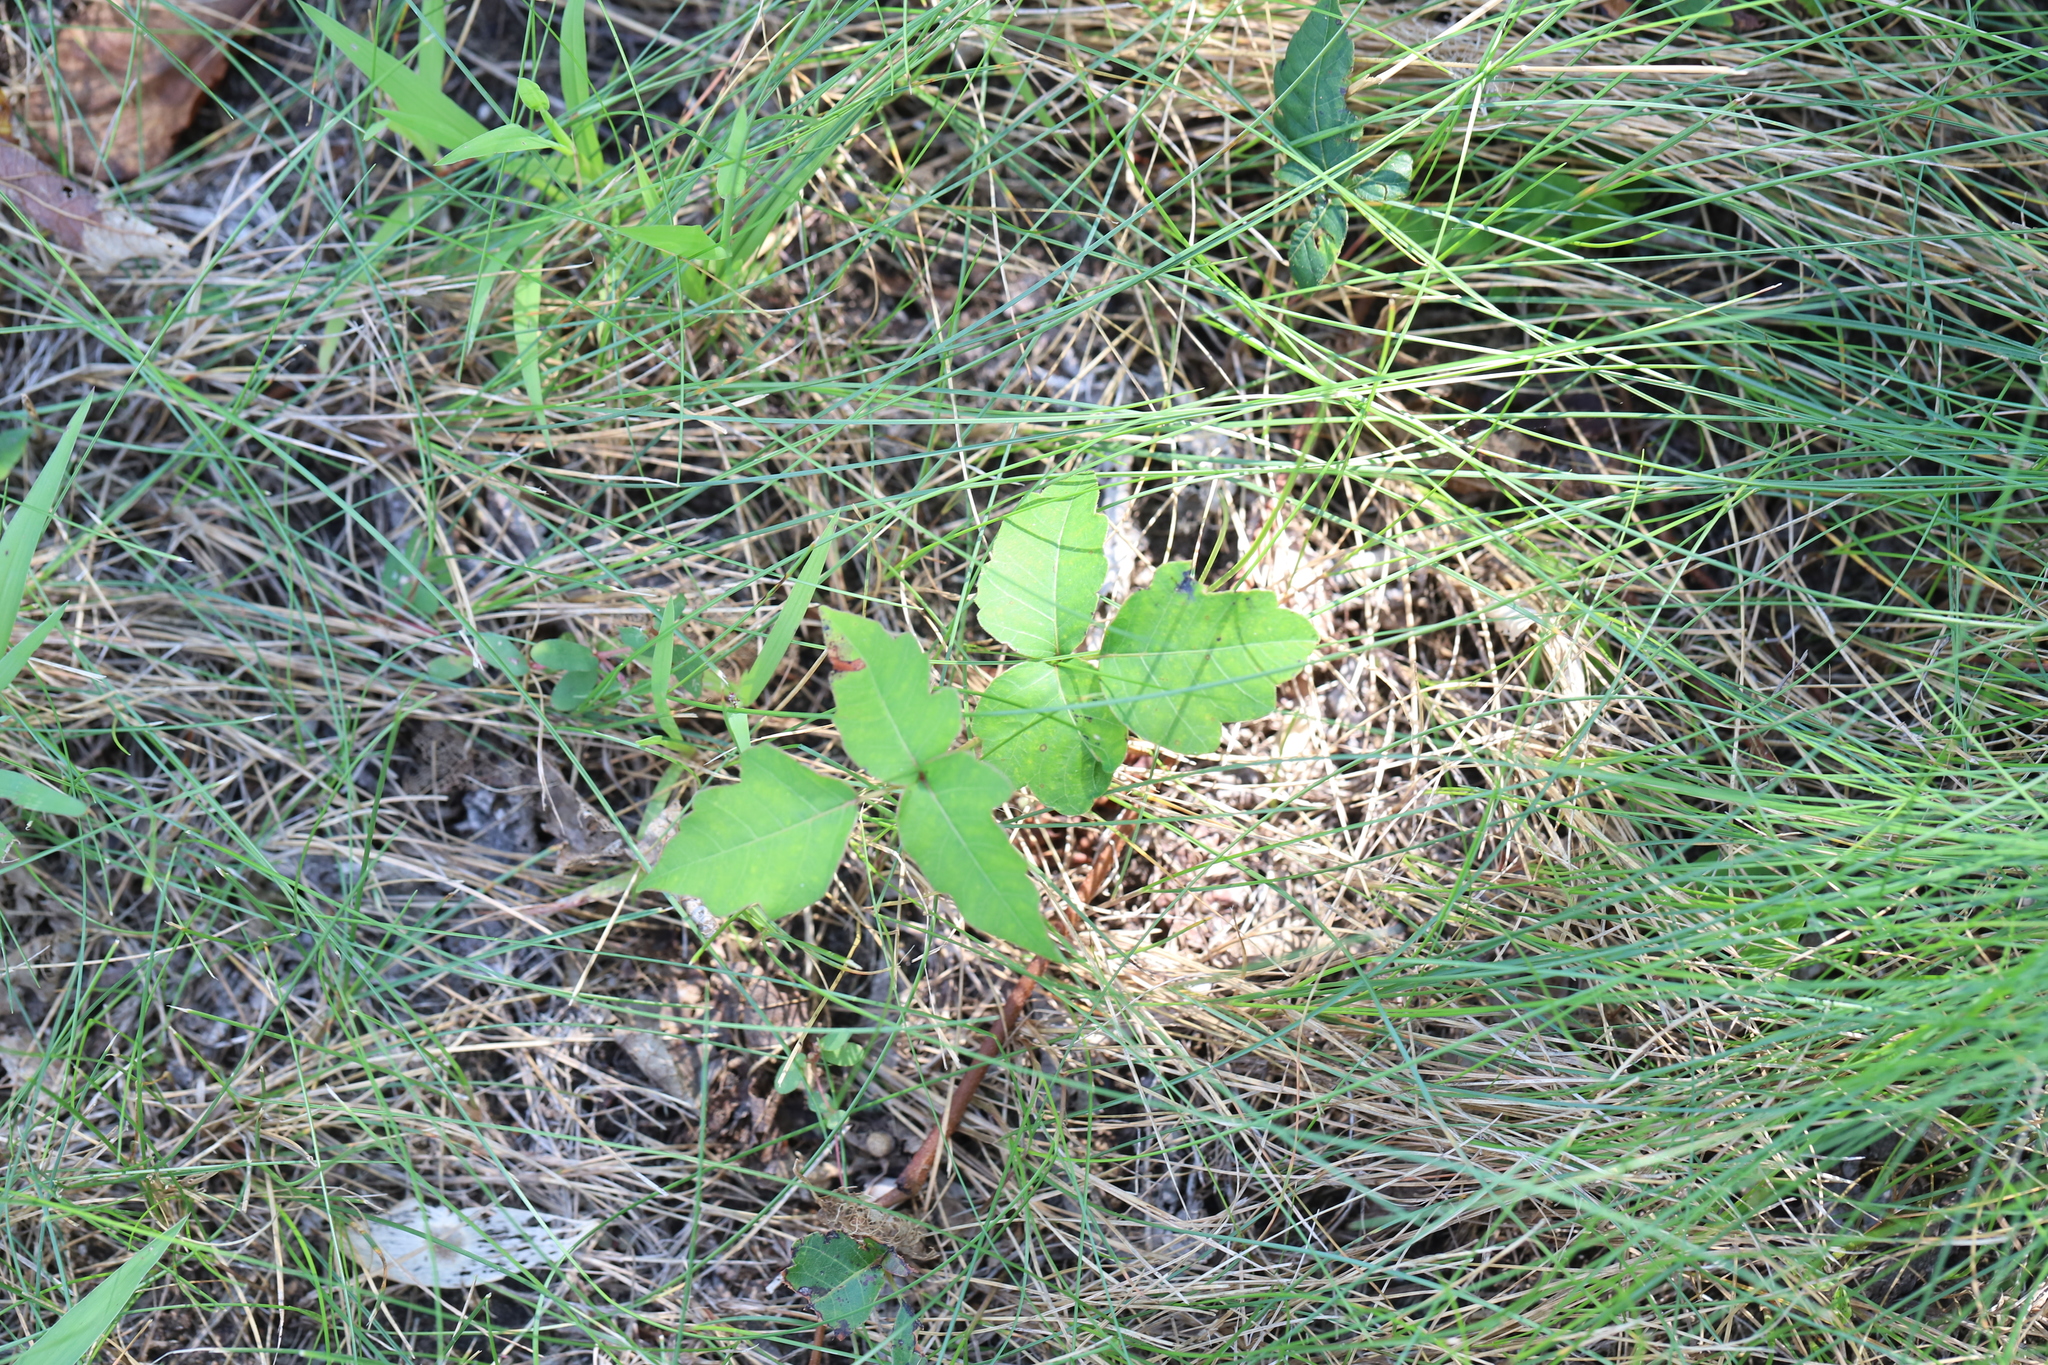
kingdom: Plantae
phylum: Tracheophyta
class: Magnoliopsida
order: Sapindales
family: Anacardiaceae
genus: Toxicodendron
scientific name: Toxicodendron radicans
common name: Poison ivy
